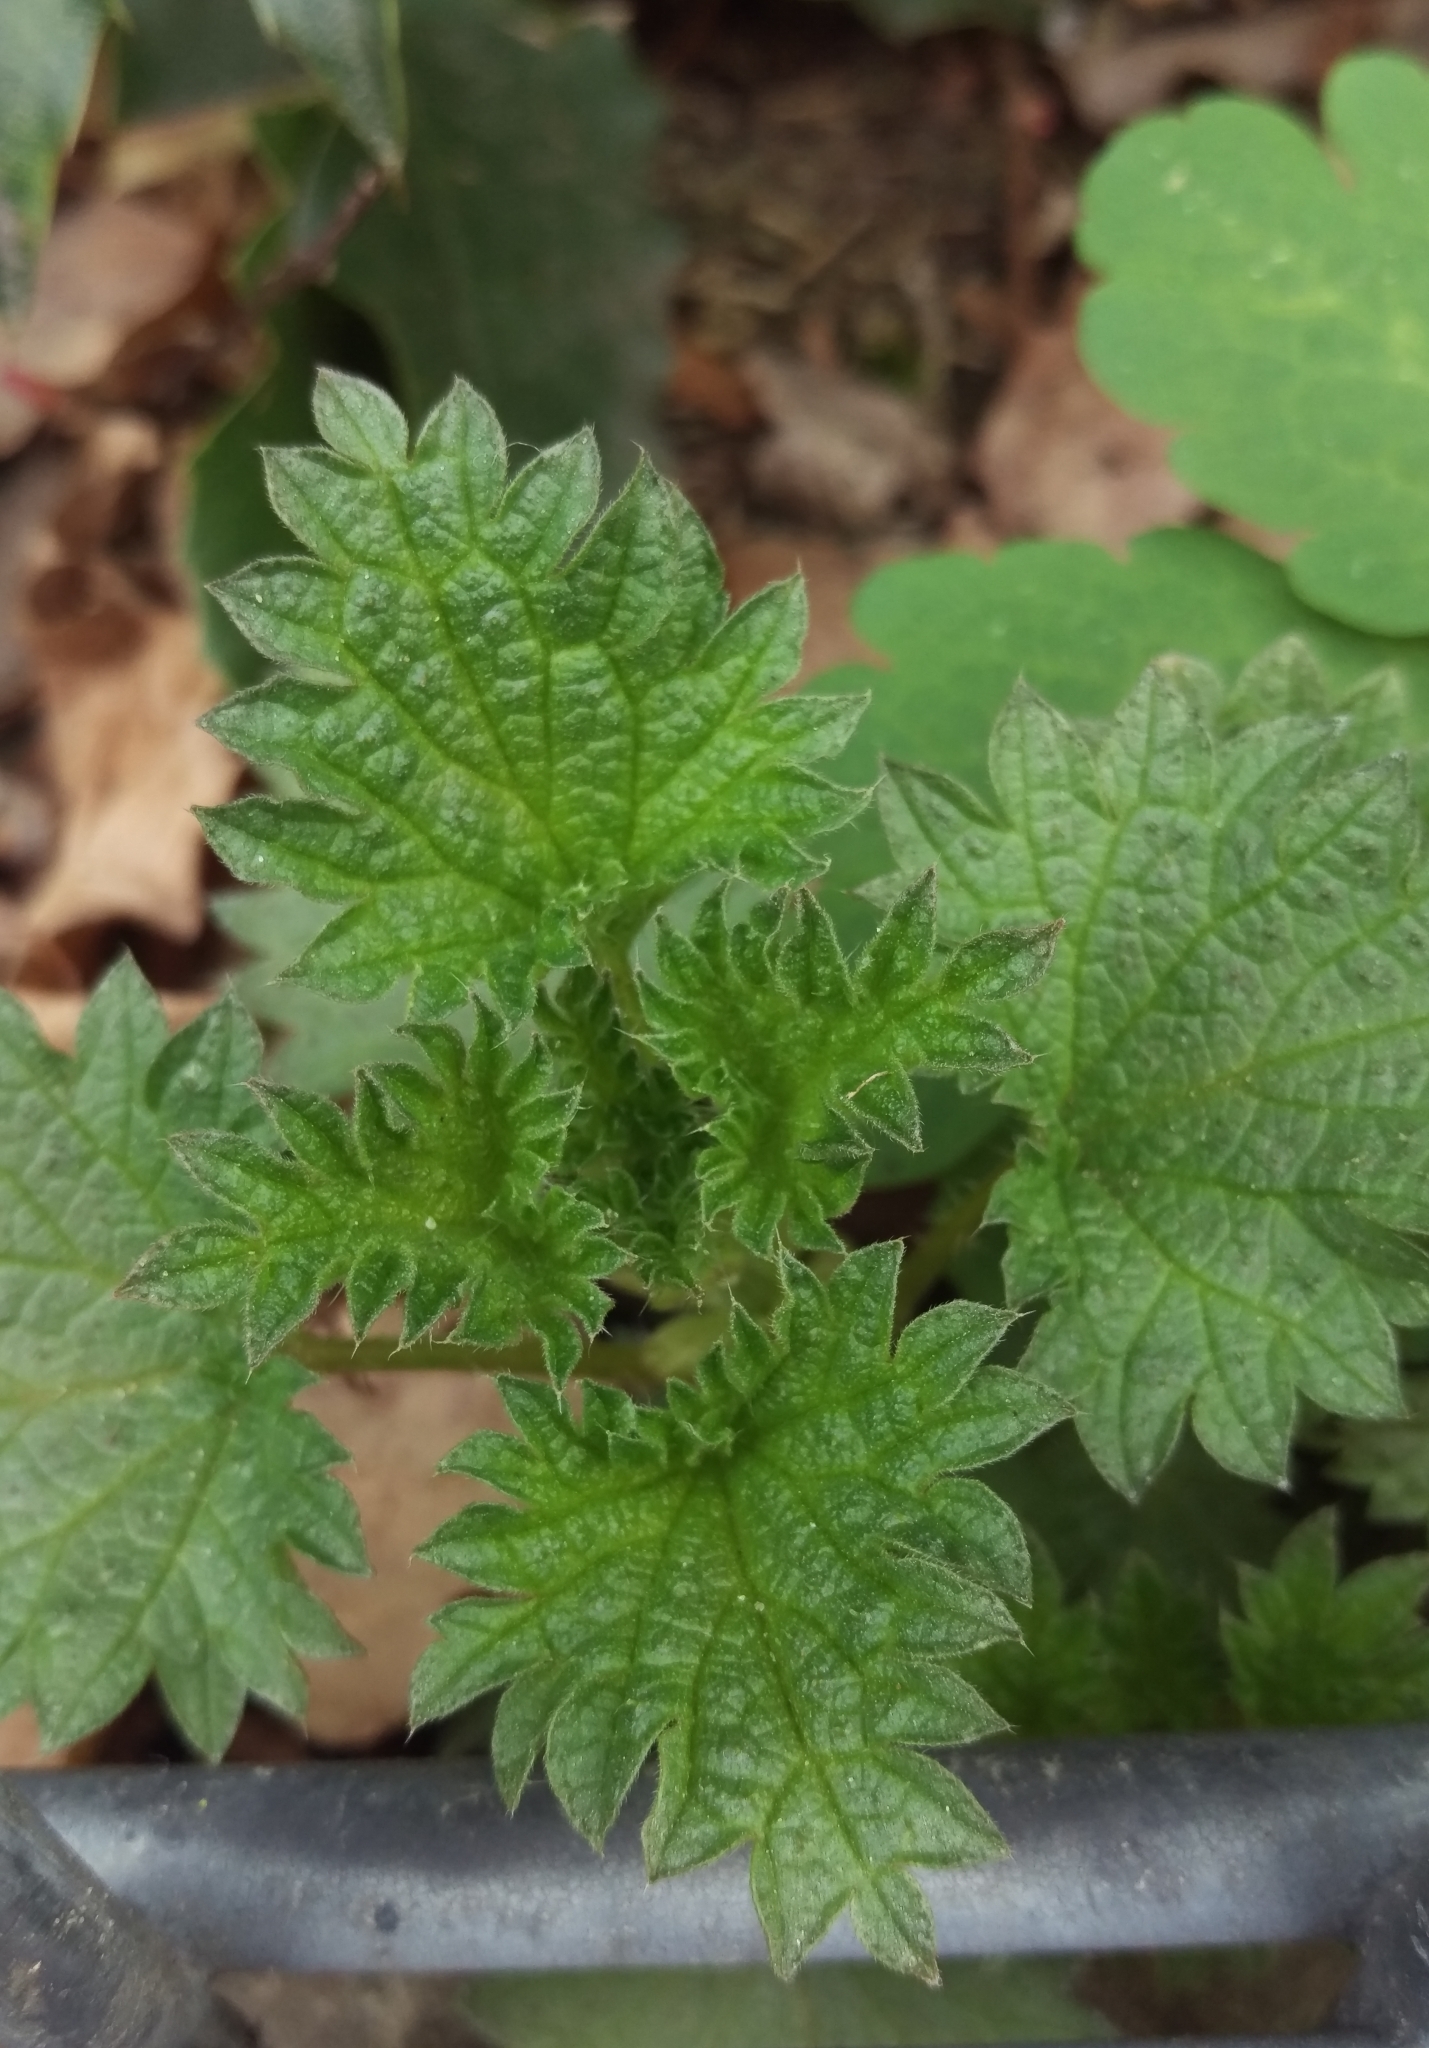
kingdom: Plantae
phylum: Tracheophyta
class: Magnoliopsida
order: Rosales
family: Urticaceae
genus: Urtica
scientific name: Urtica dioica
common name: Common nettle
